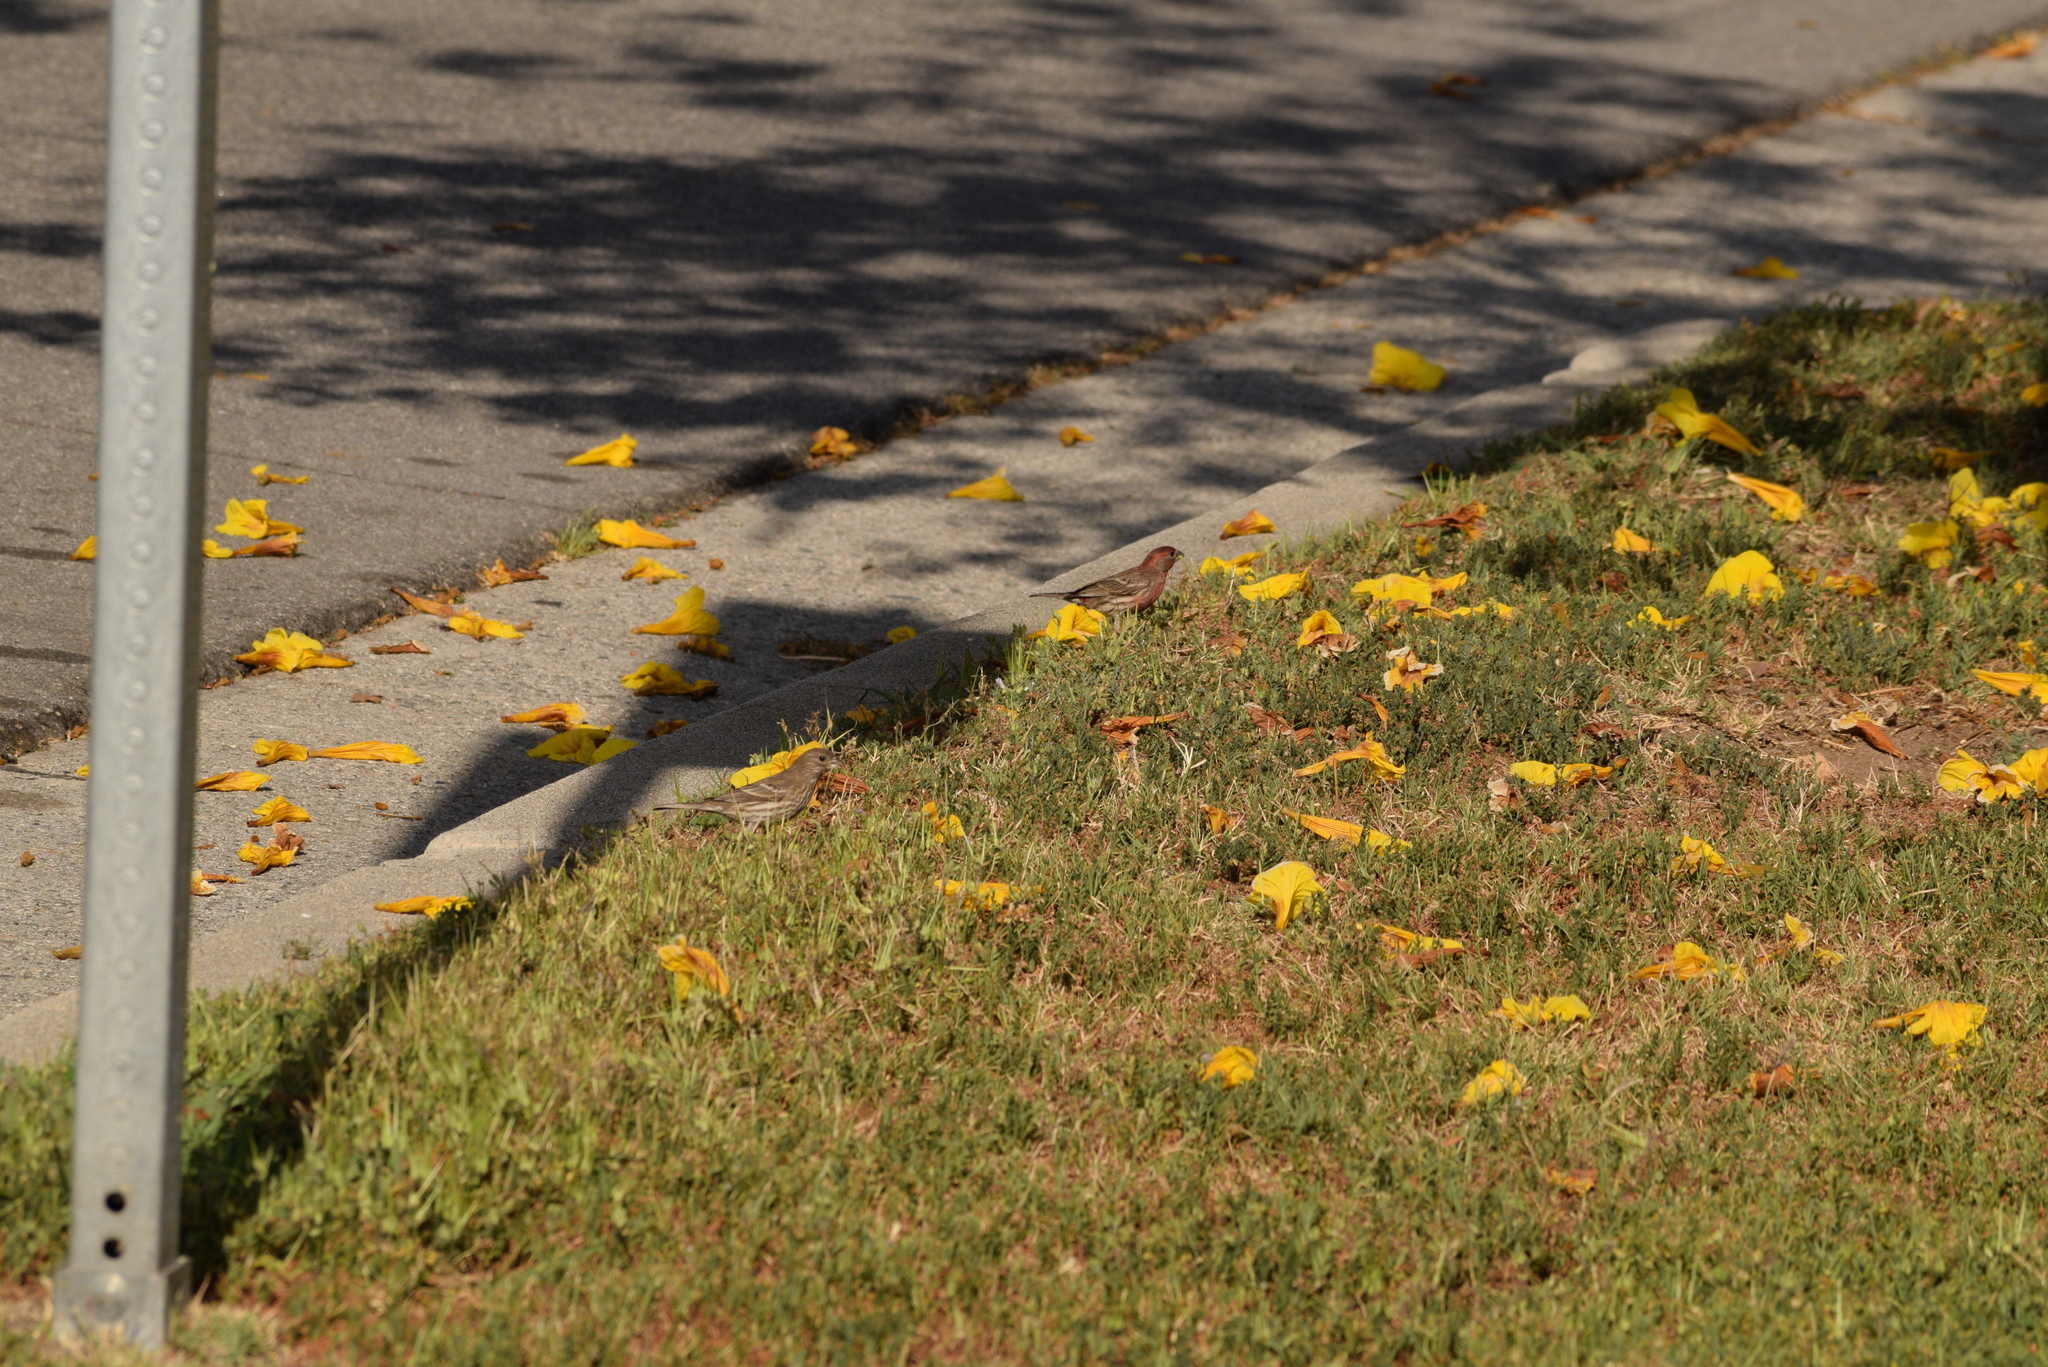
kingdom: Animalia
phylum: Chordata
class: Aves
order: Passeriformes
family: Fringillidae
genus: Haemorhous
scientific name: Haemorhous mexicanus
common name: House finch
